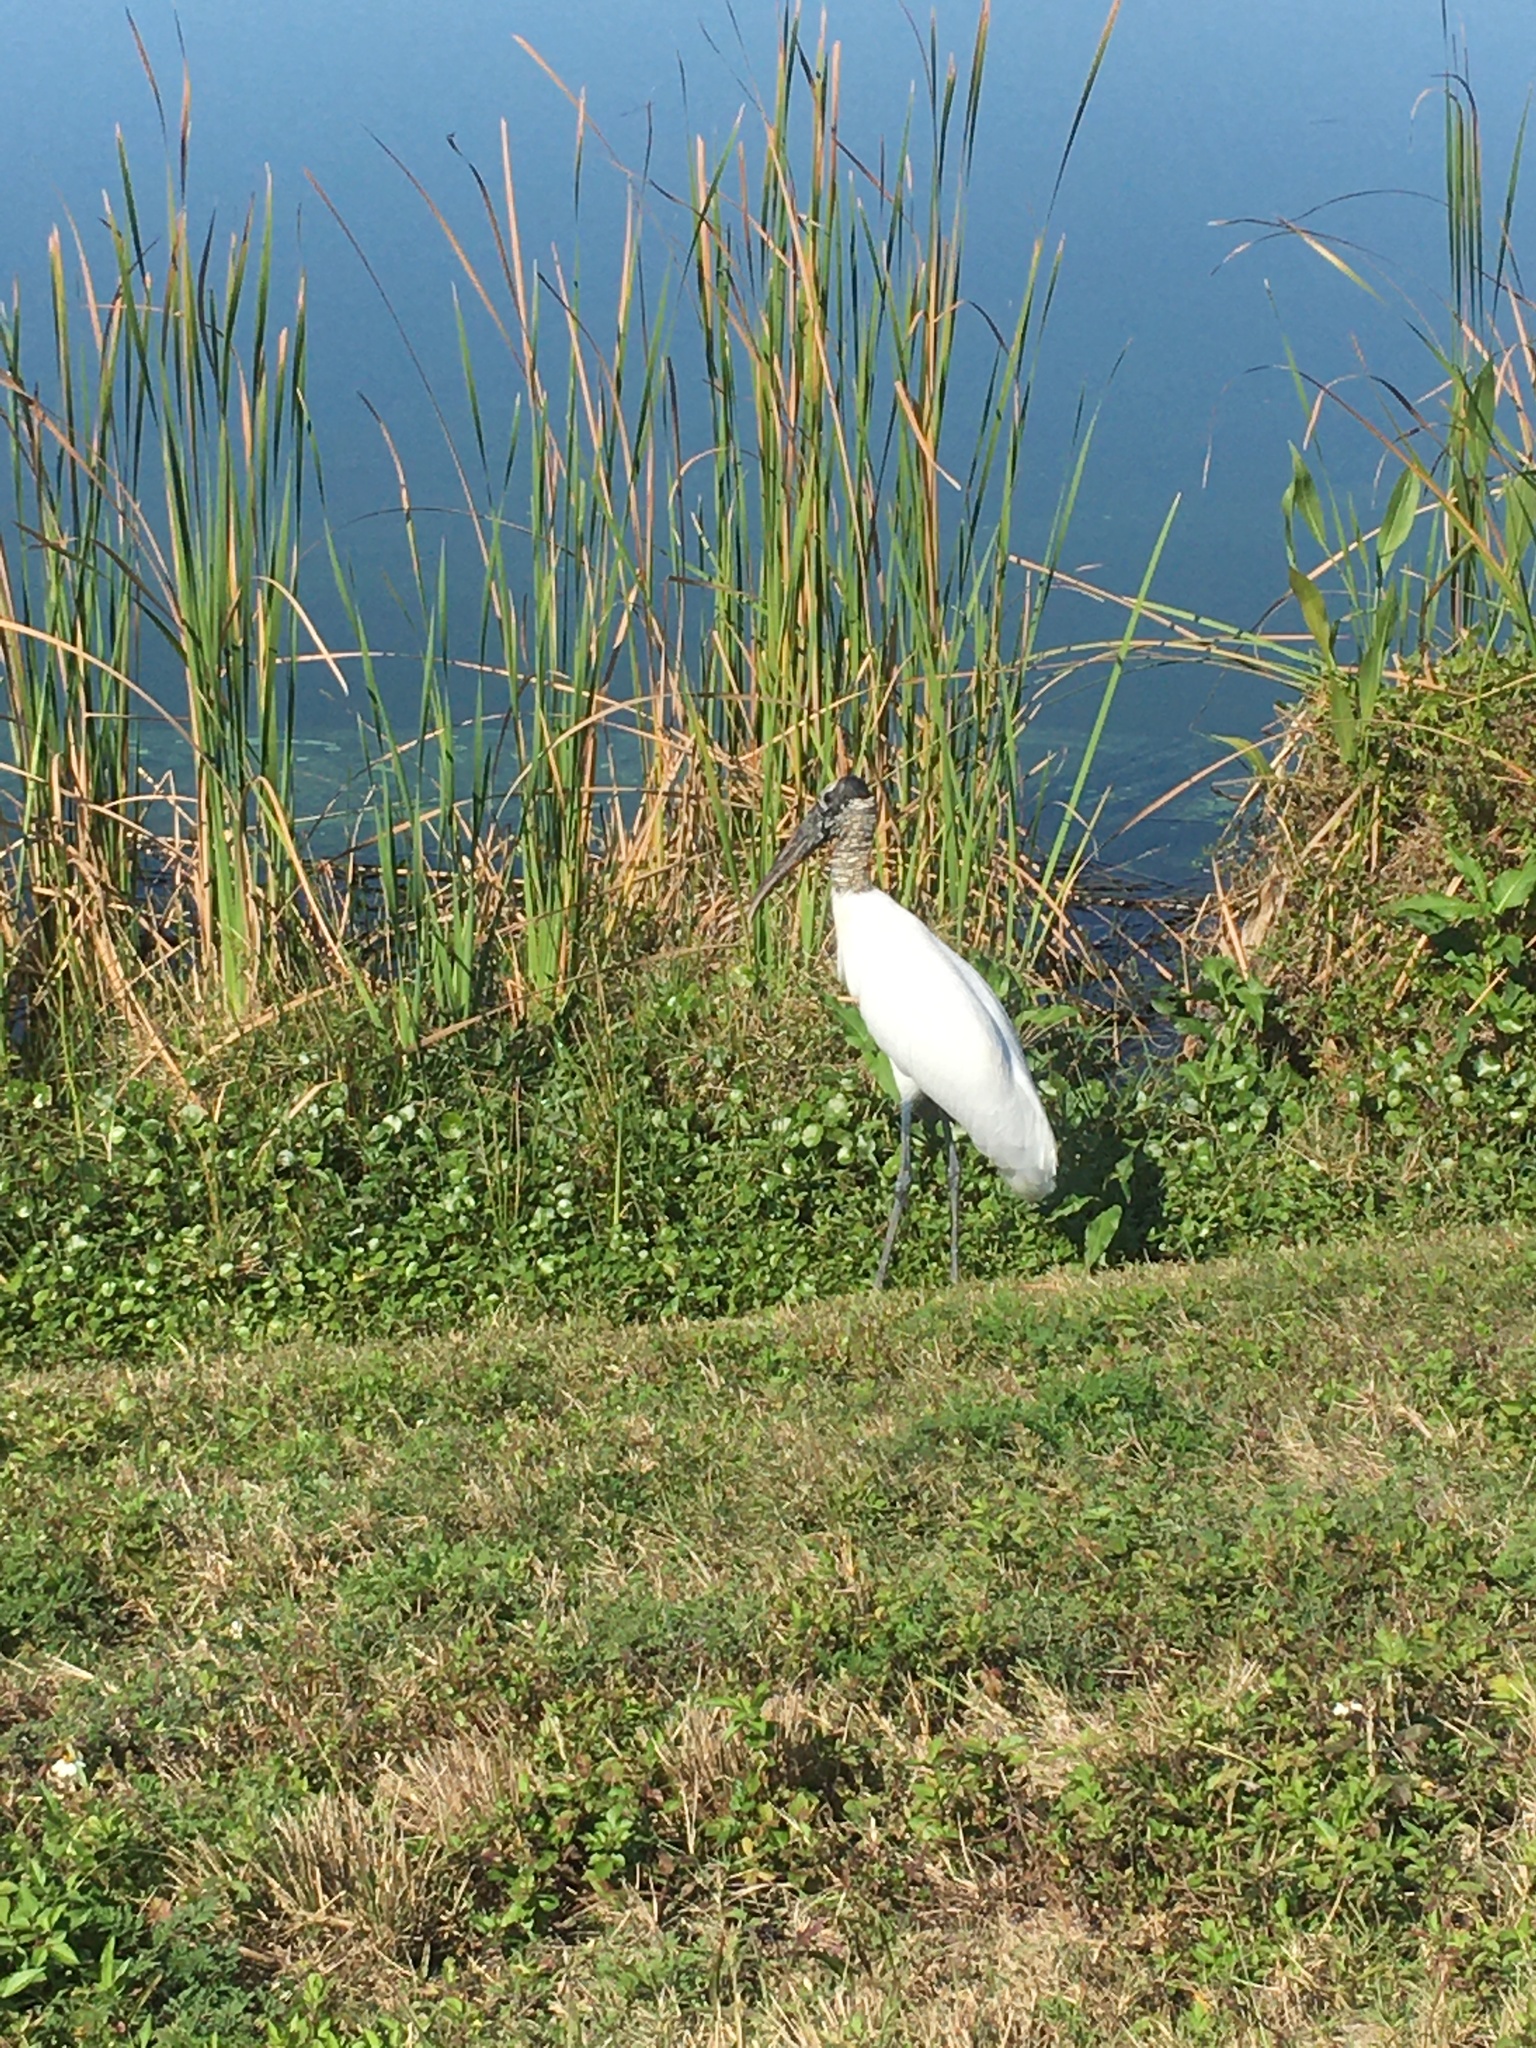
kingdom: Animalia
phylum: Chordata
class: Aves
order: Ciconiiformes
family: Ciconiidae
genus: Mycteria
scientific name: Mycteria americana
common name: Wood stork
